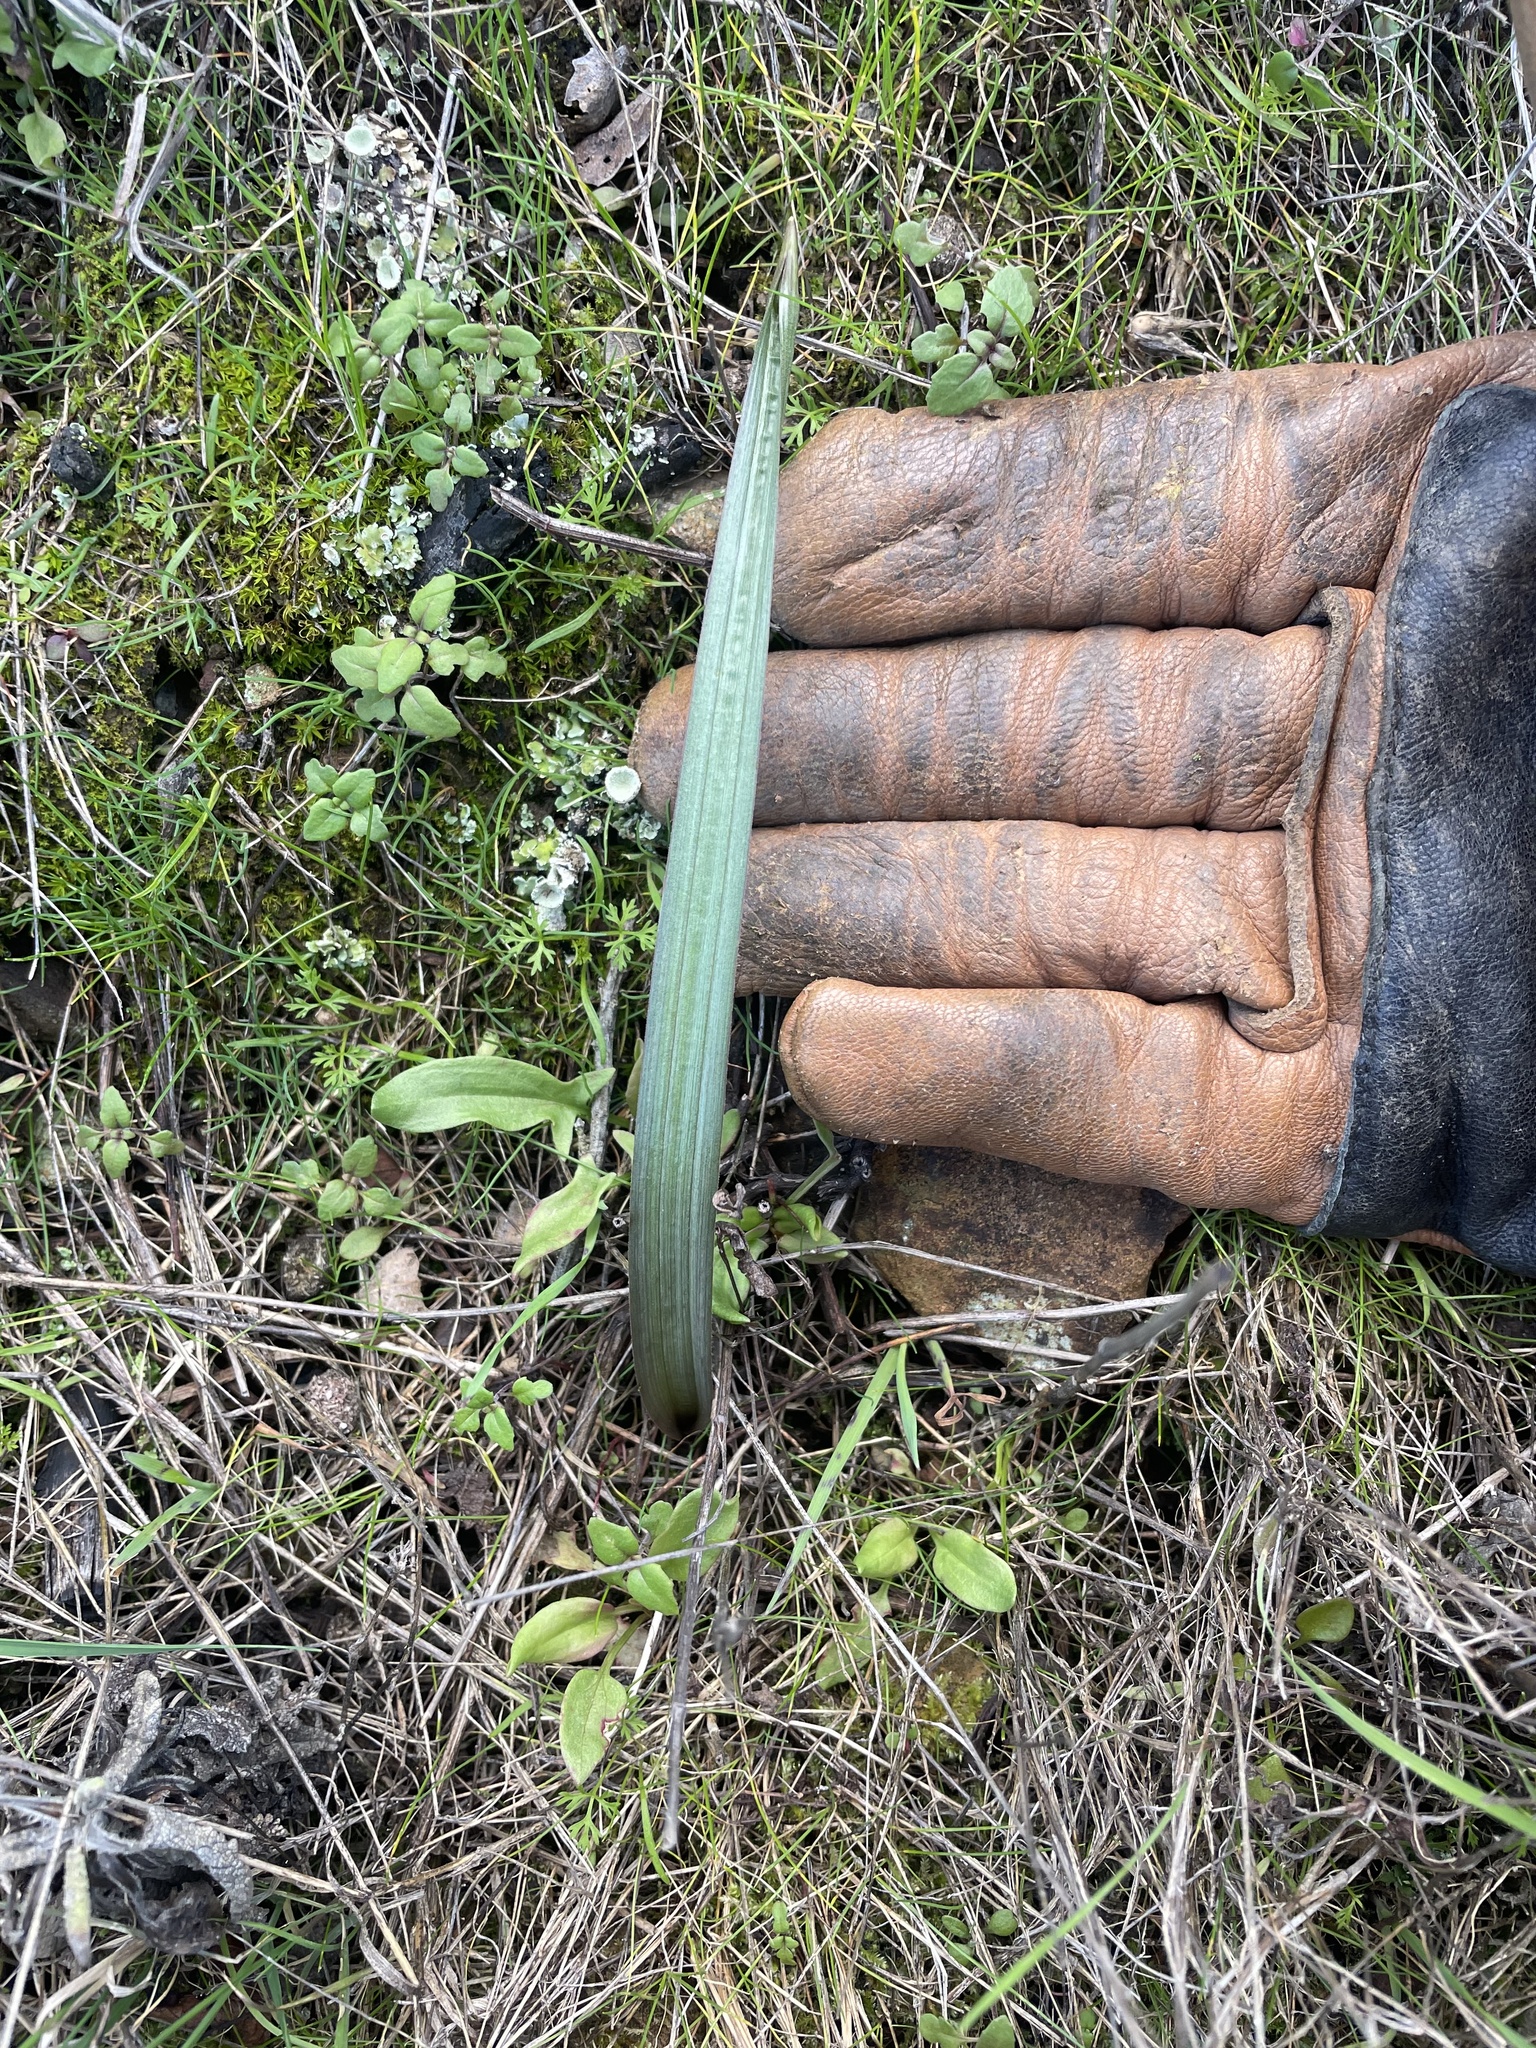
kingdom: Plantae
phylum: Tracheophyta
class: Liliopsida
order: Asparagales
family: Asparagaceae
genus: Dipterostemon
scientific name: Dipterostemon capitatus
